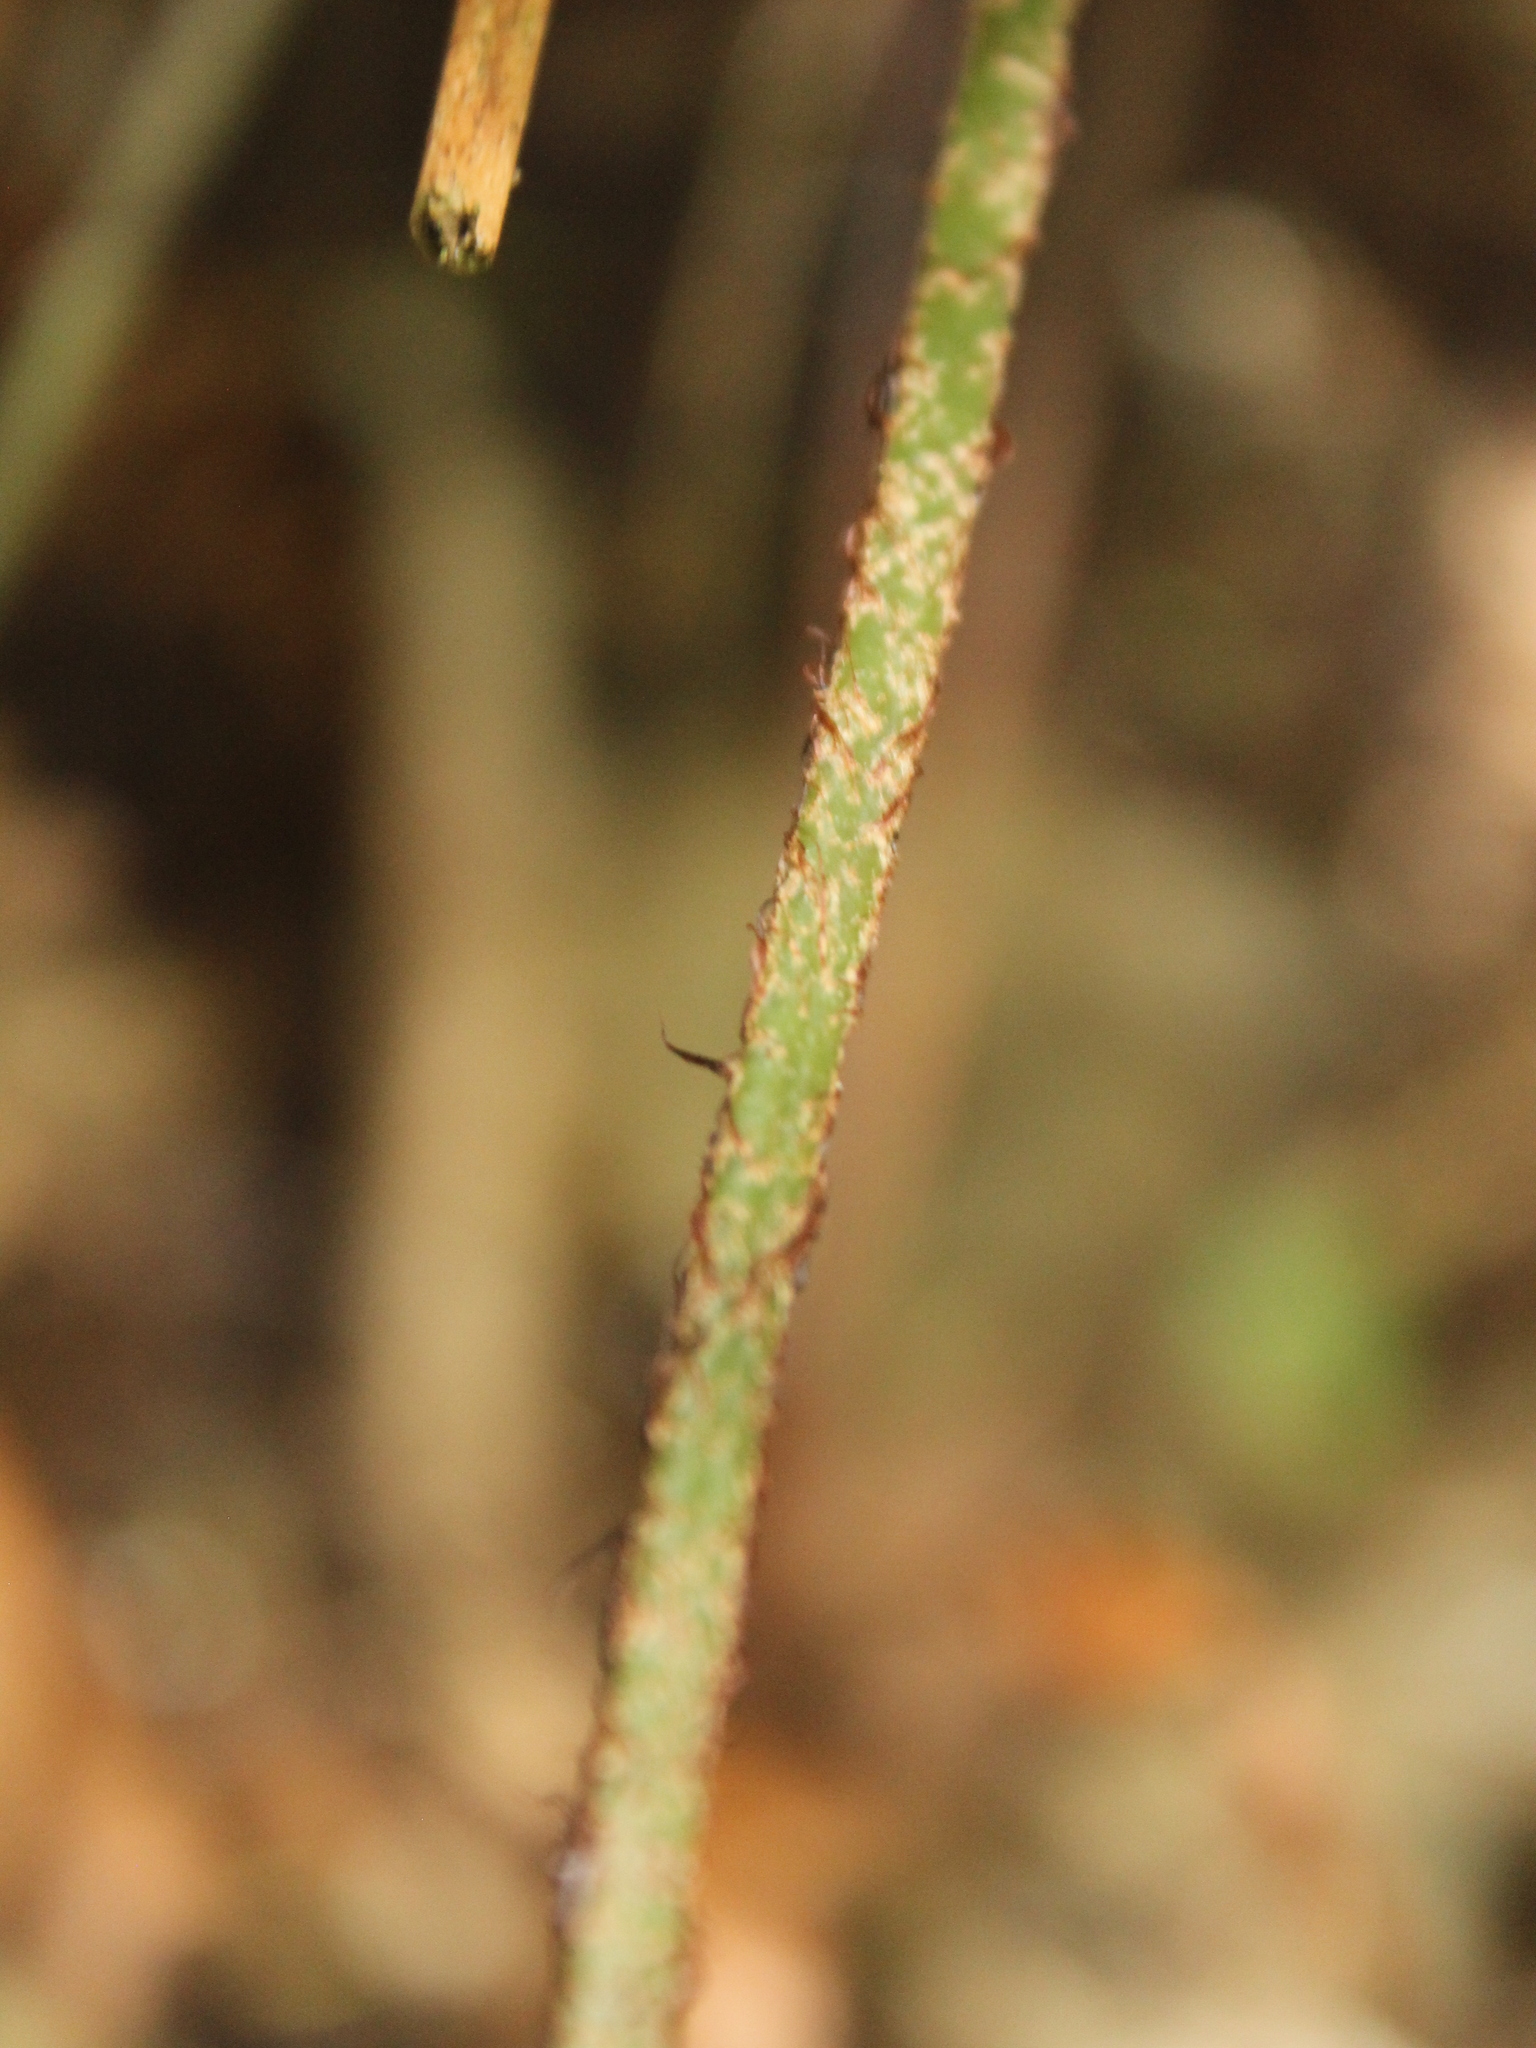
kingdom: Plantae
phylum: Tracheophyta
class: Polypodiopsida
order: Polypodiales
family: Dryopteridaceae
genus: Polystichum
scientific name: Polystichum neozelandicum
